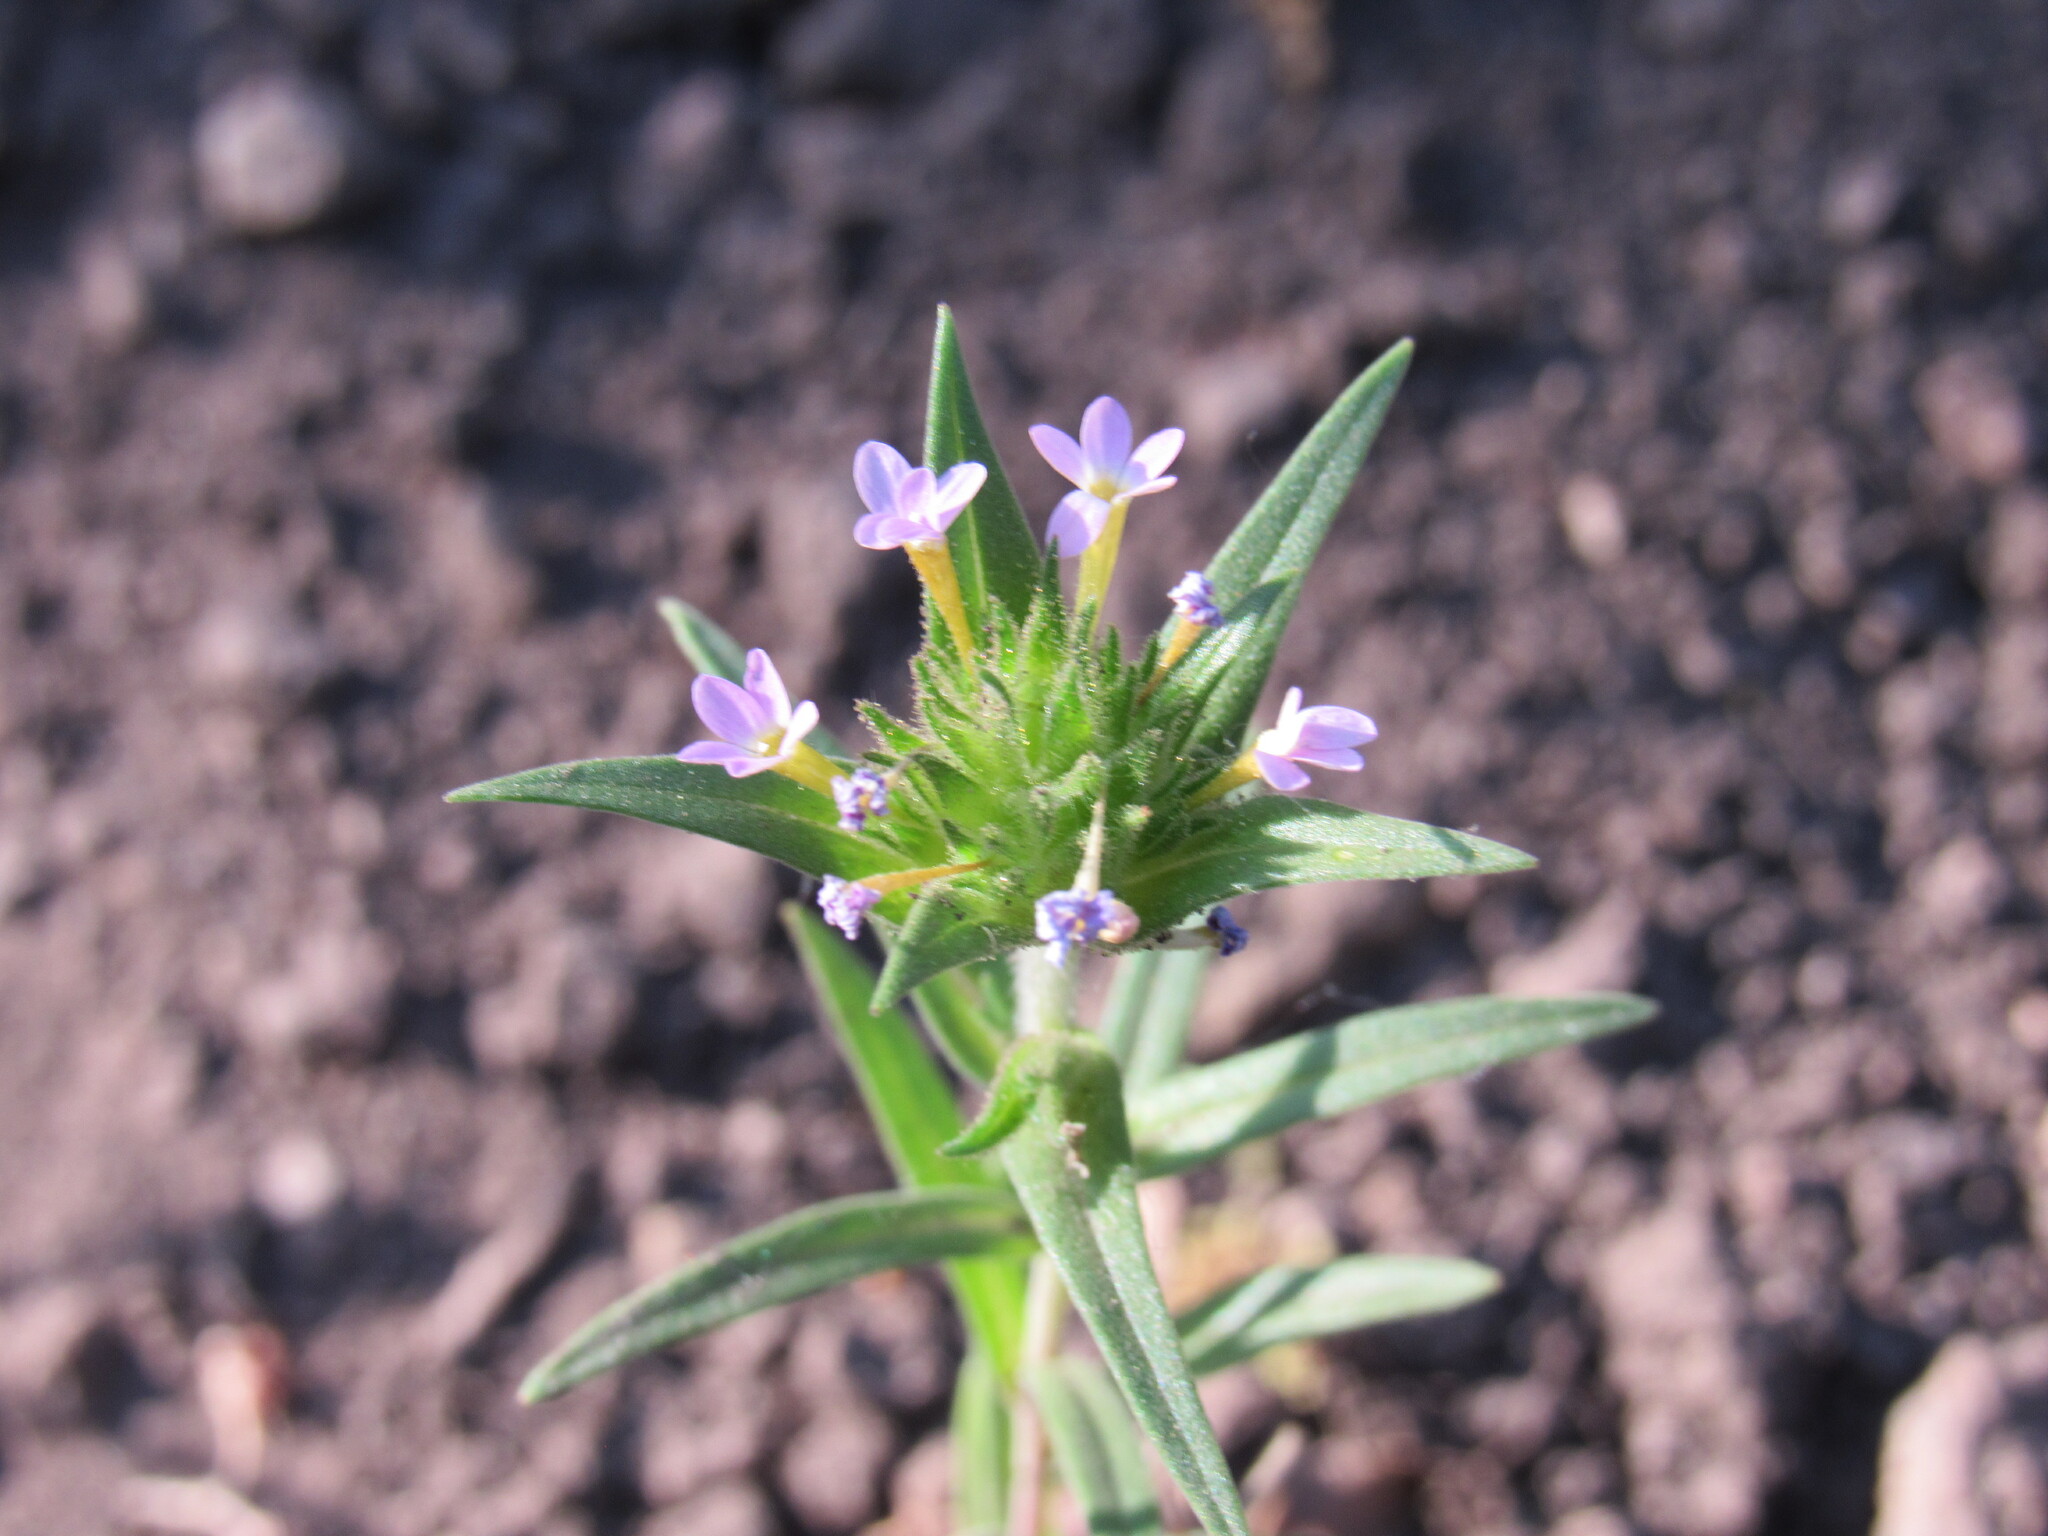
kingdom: Plantae
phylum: Tracheophyta
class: Magnoliopsida
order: Ericales
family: Polemoniaceae
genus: Collomia
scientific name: Collomia linearis
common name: Tiny trumpet
